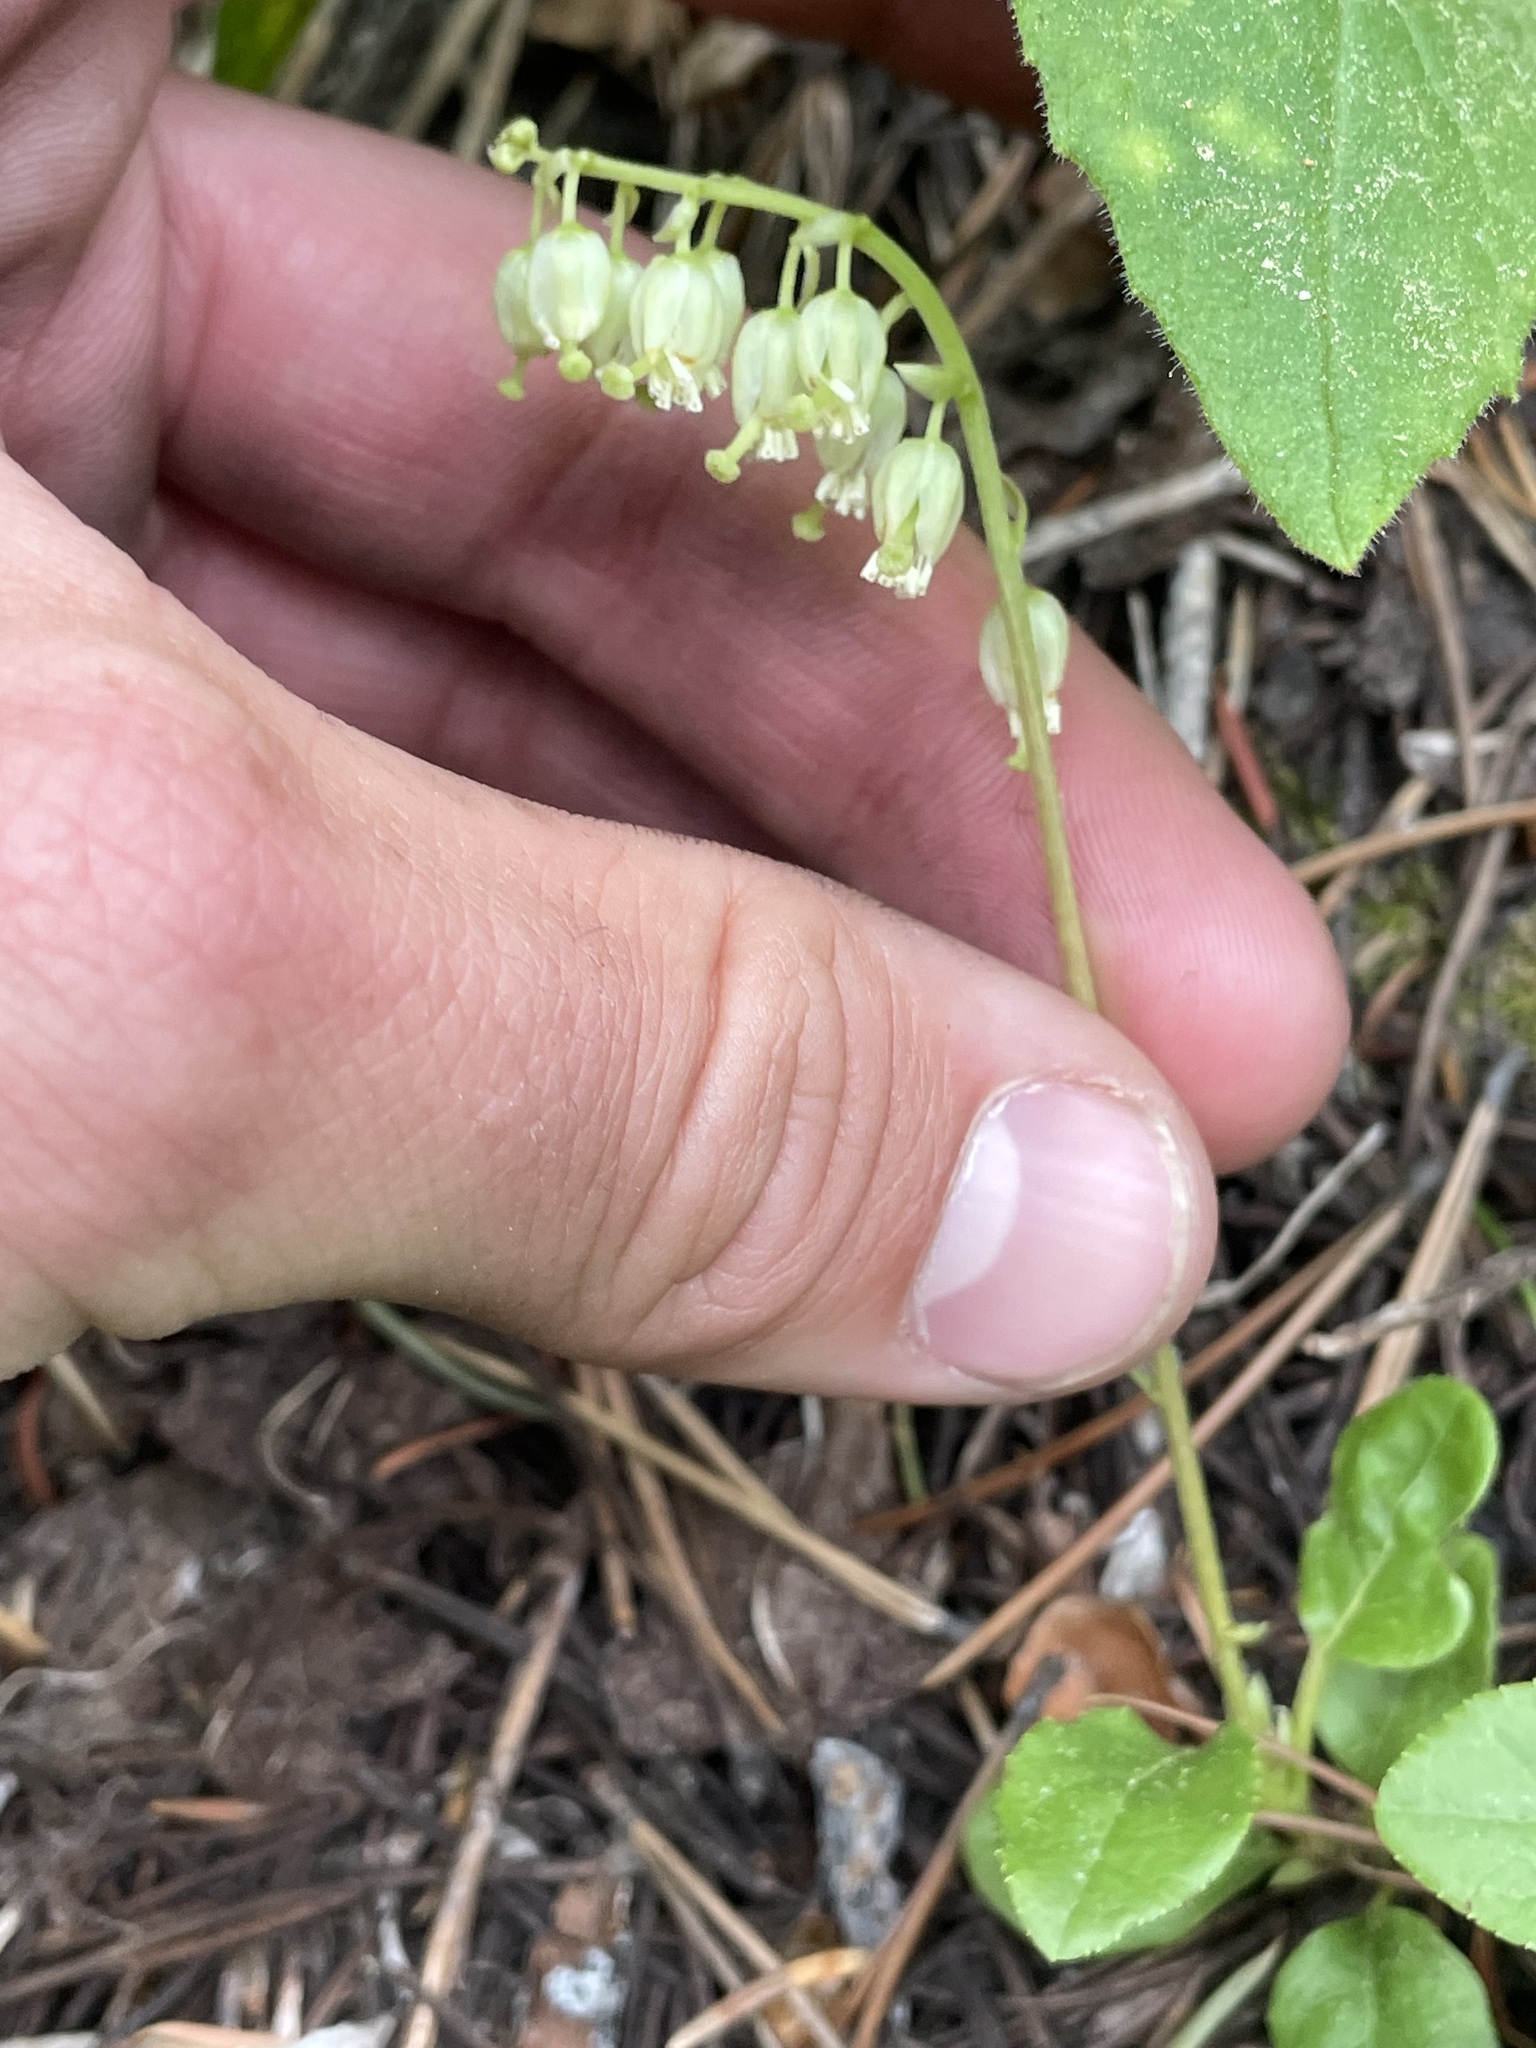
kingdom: Plantae
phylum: Tracheophyta
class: Magnoliopsida
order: Ericales
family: Ericaceae
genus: Orthilia
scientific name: Orthilia secunda
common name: One-sided orthilia
